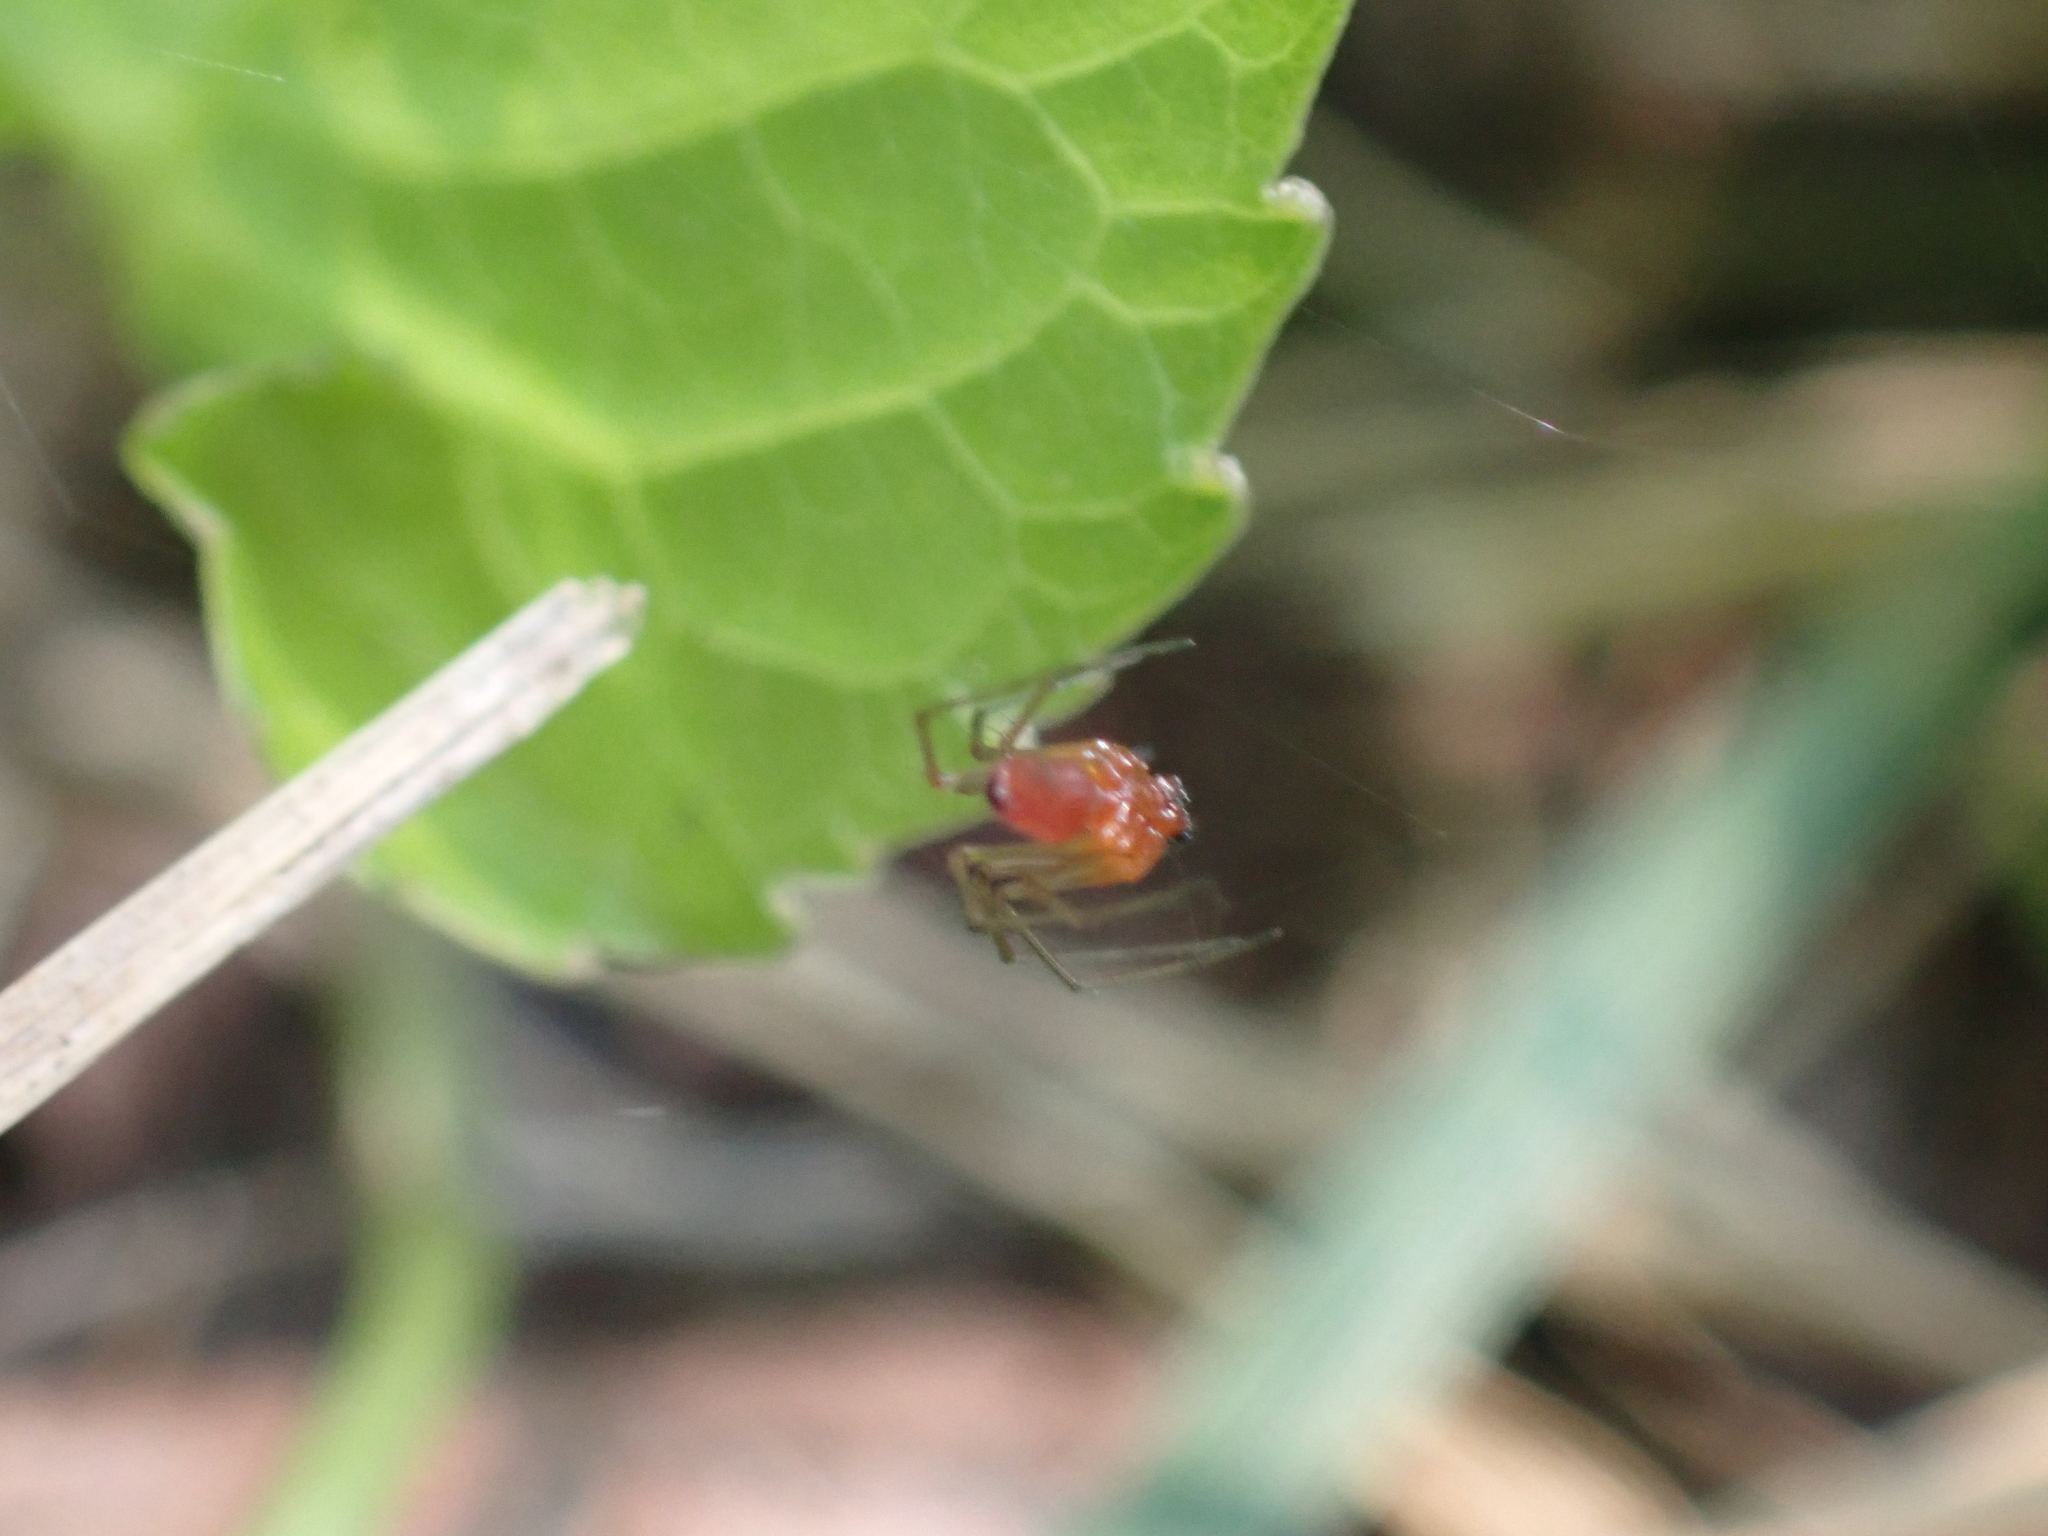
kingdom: Animalia
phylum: Arthropoda
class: Arachnida
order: Araneae
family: Linyphiidae
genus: Florinda
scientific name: Florinda coccinea
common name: Black-tailed red sheetweaver
